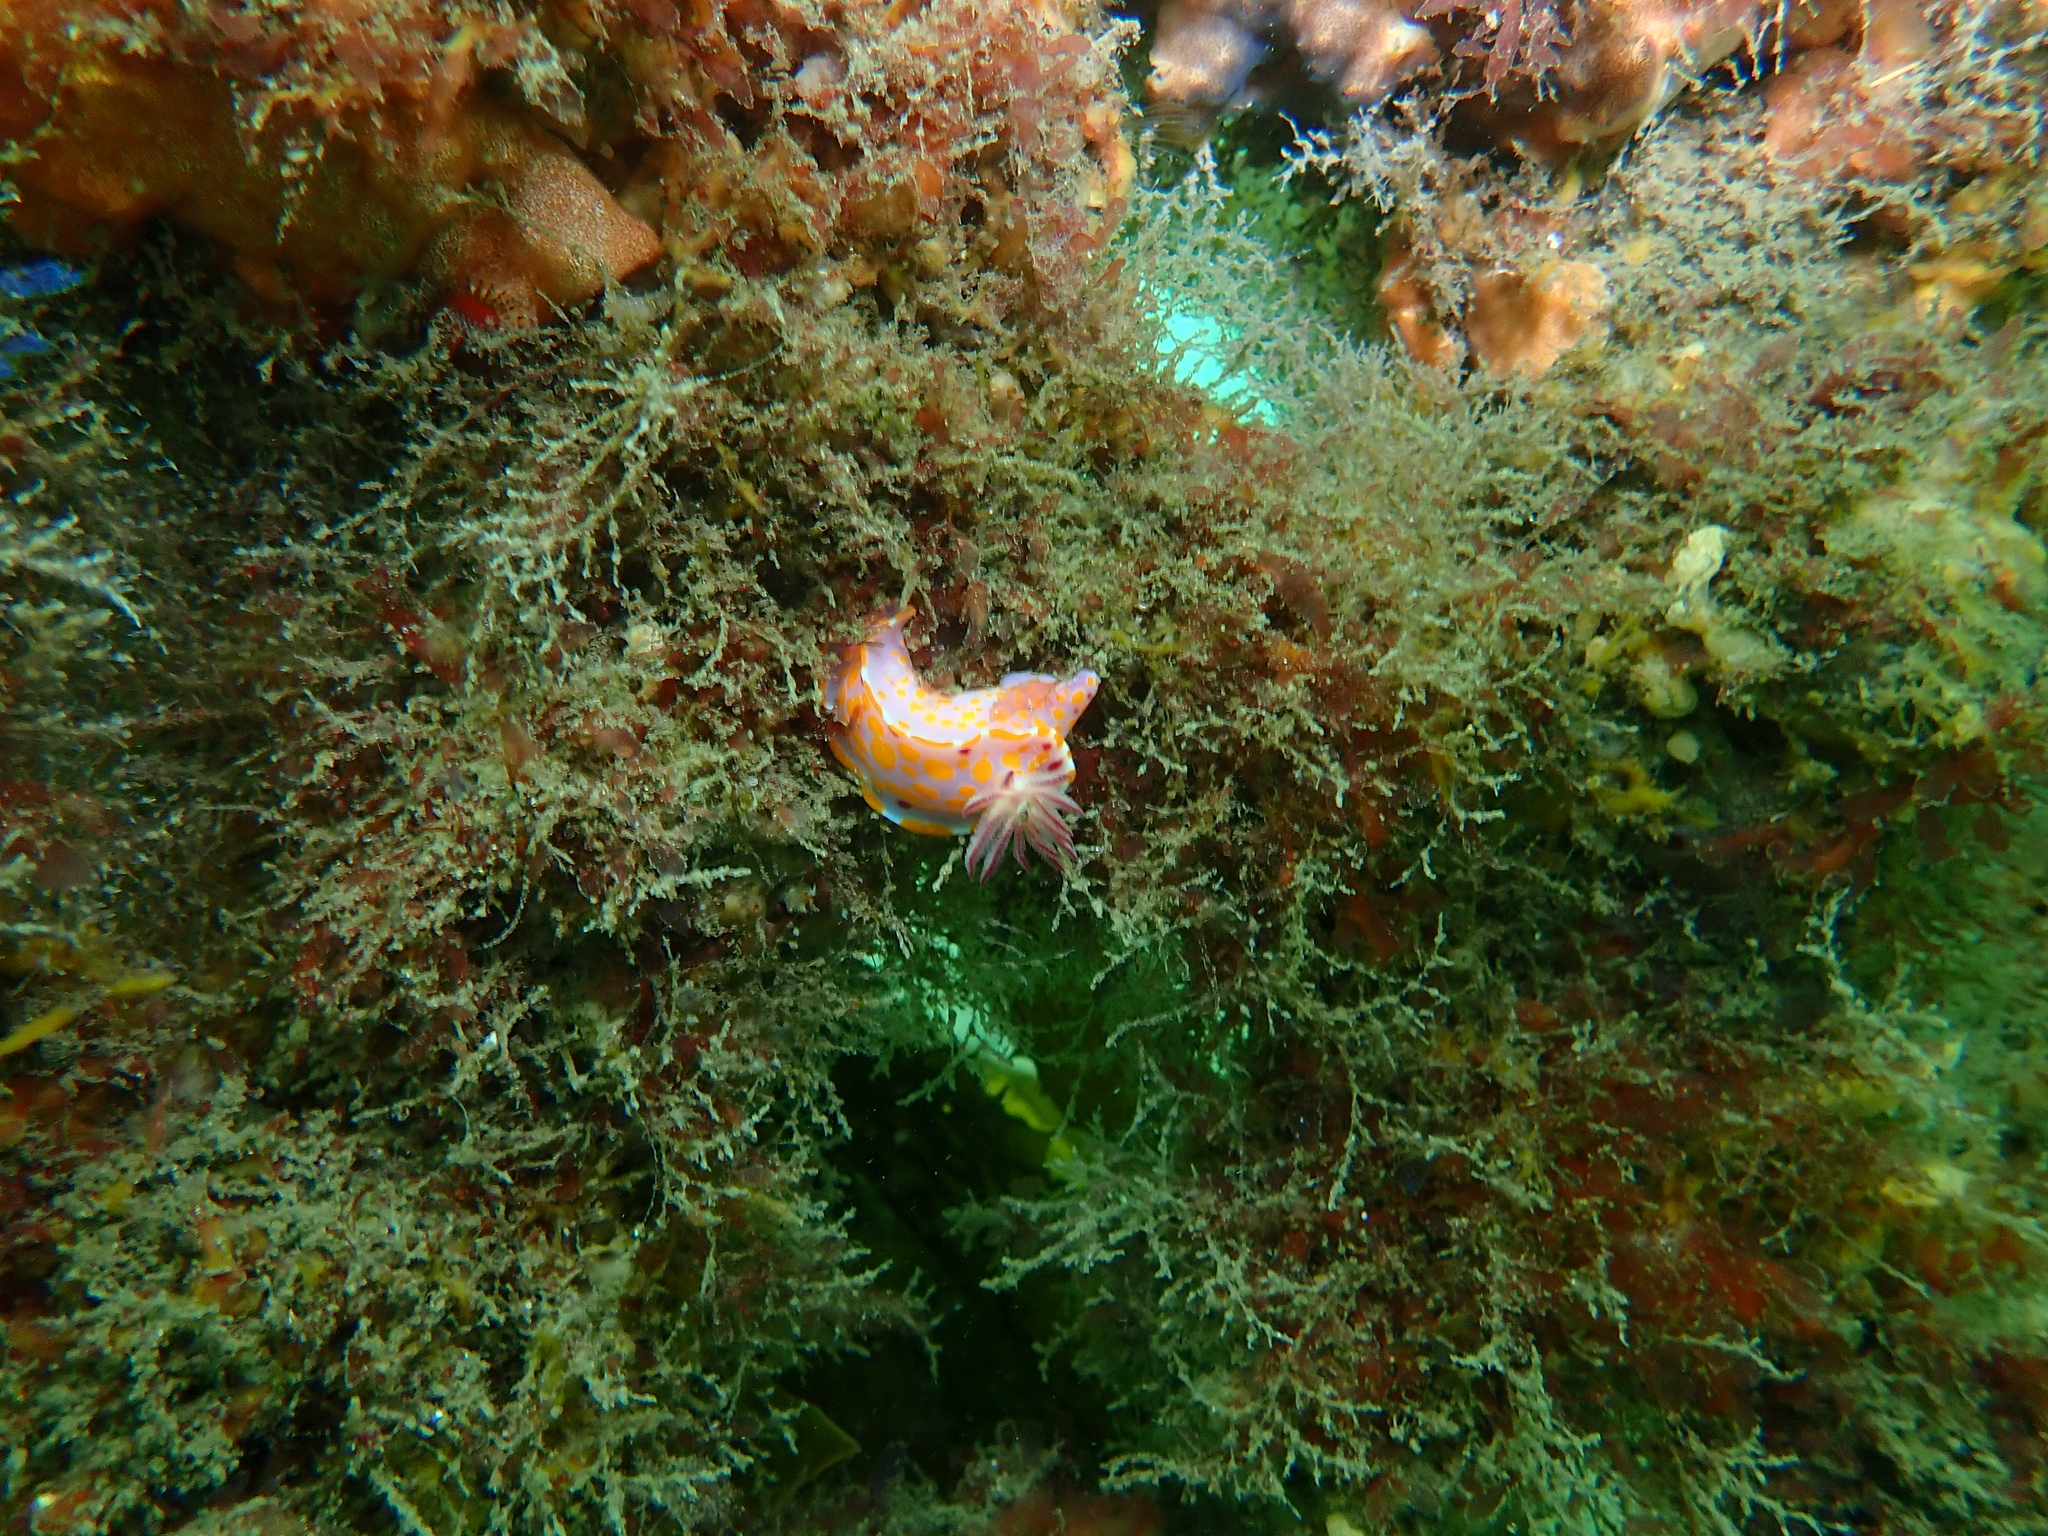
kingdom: Animalia
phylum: Mollusca
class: Gastropoda
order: Nudibranchia
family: Chromodorididae
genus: Ceratosoma
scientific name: Ceratosoma amoenum
